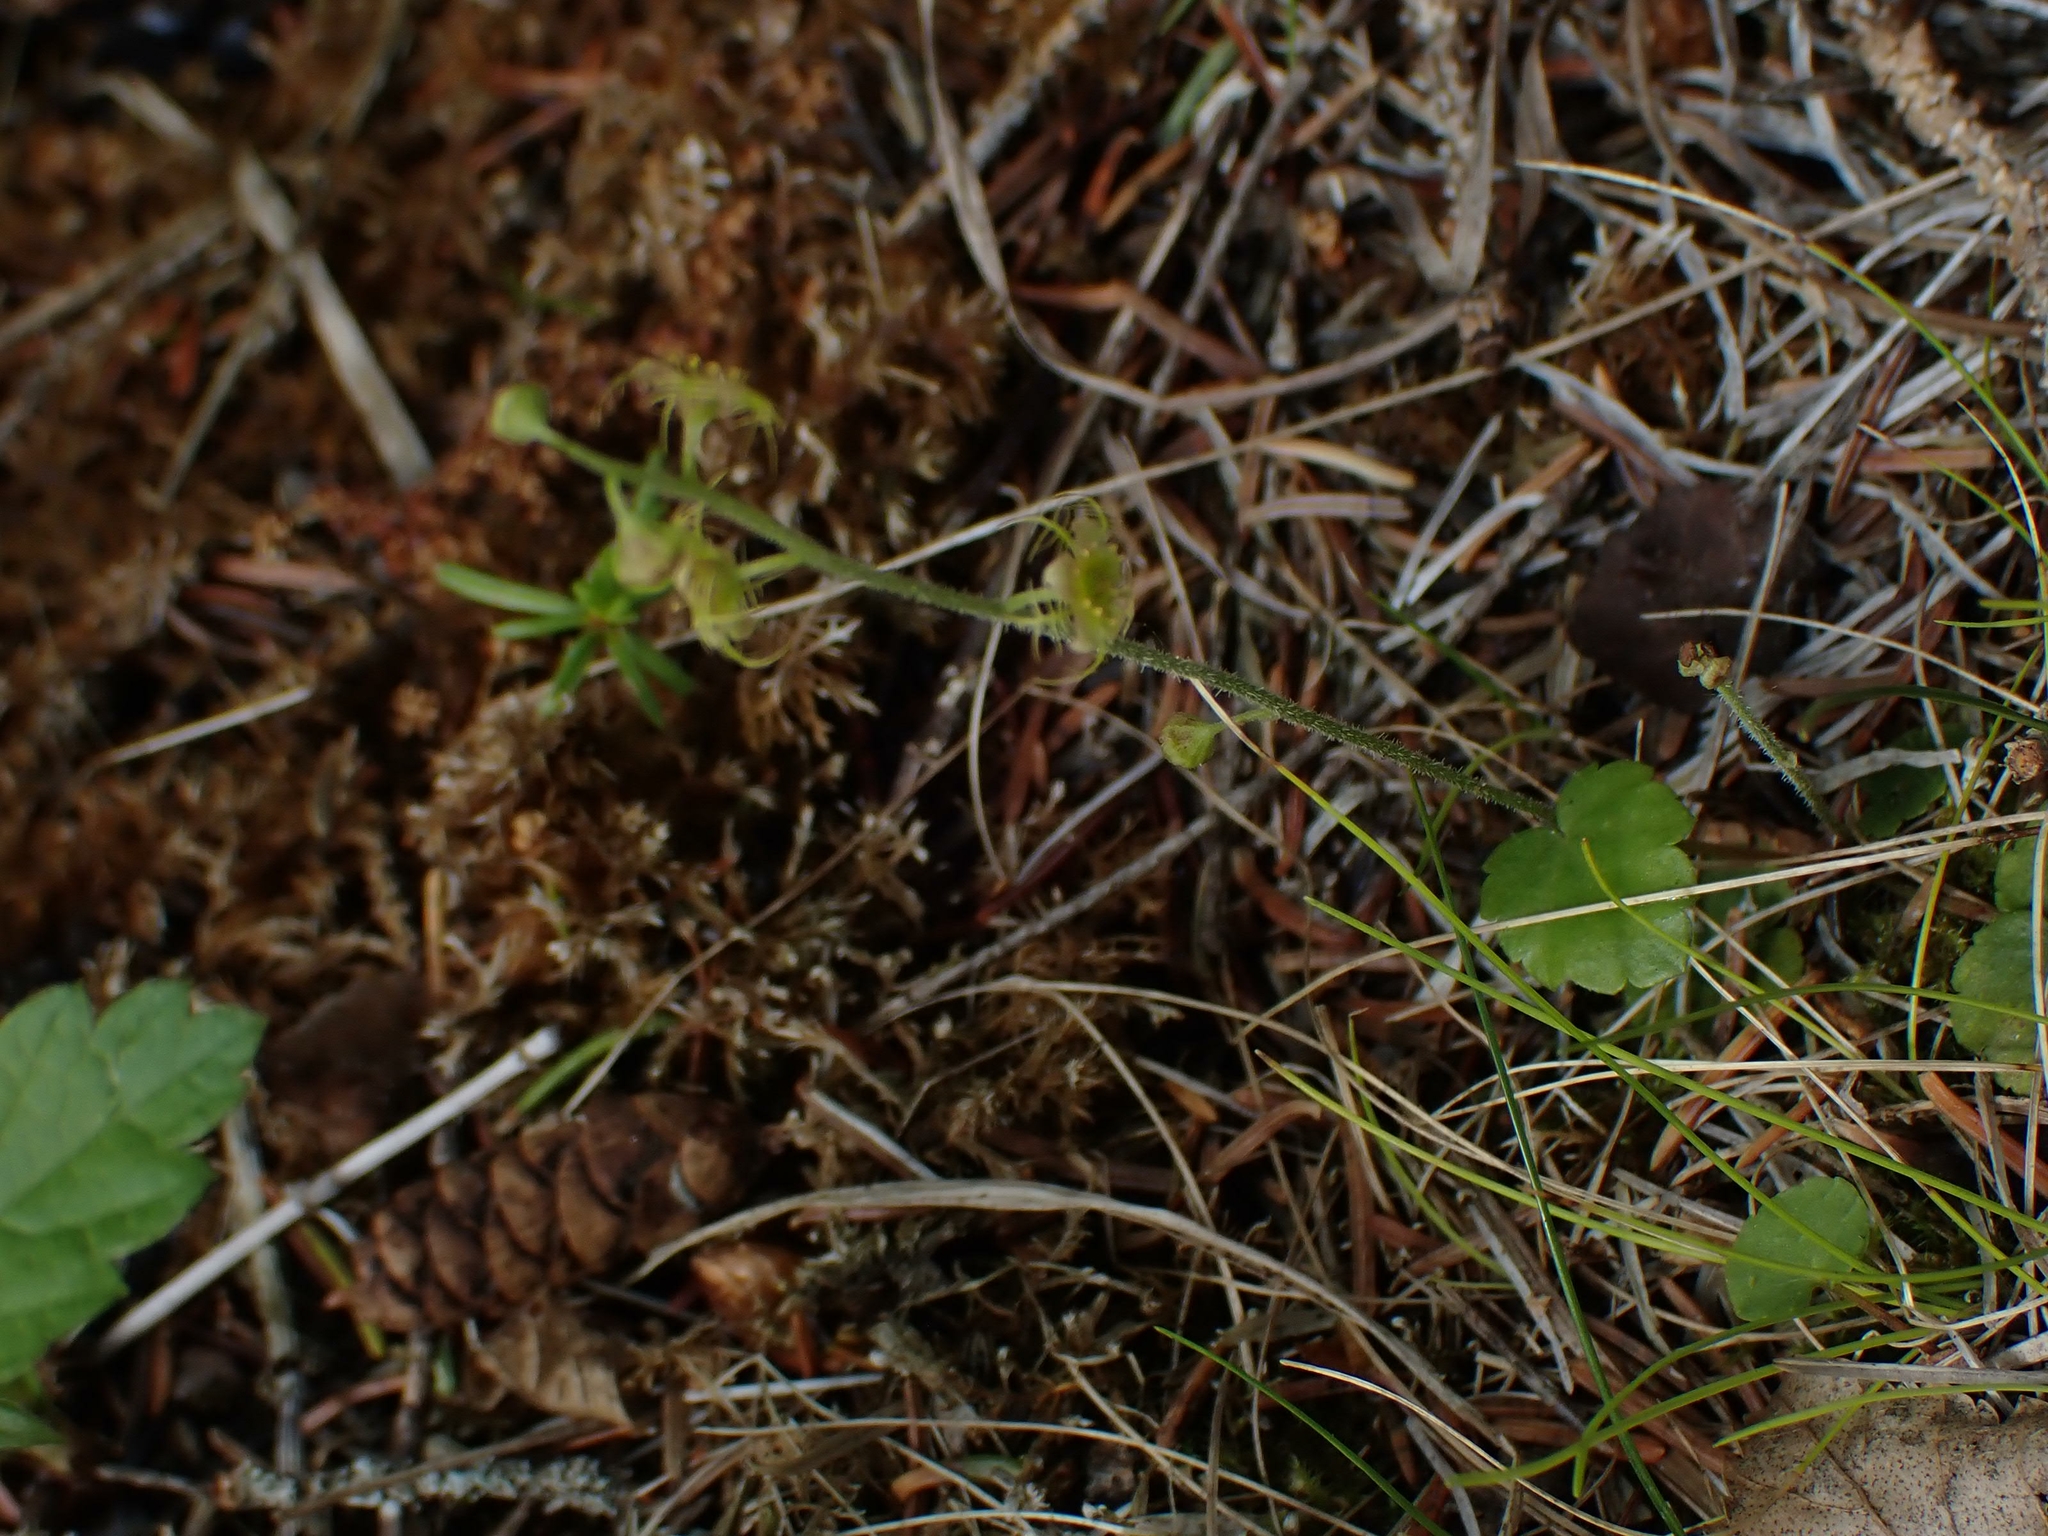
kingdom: Plantae
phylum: Tracheophyta
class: Magnoliopsida
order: Saxifragales
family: Saxifragaceae
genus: Mitella
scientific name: Mitella nuda
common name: Bare-stemmed bishop's-cap
